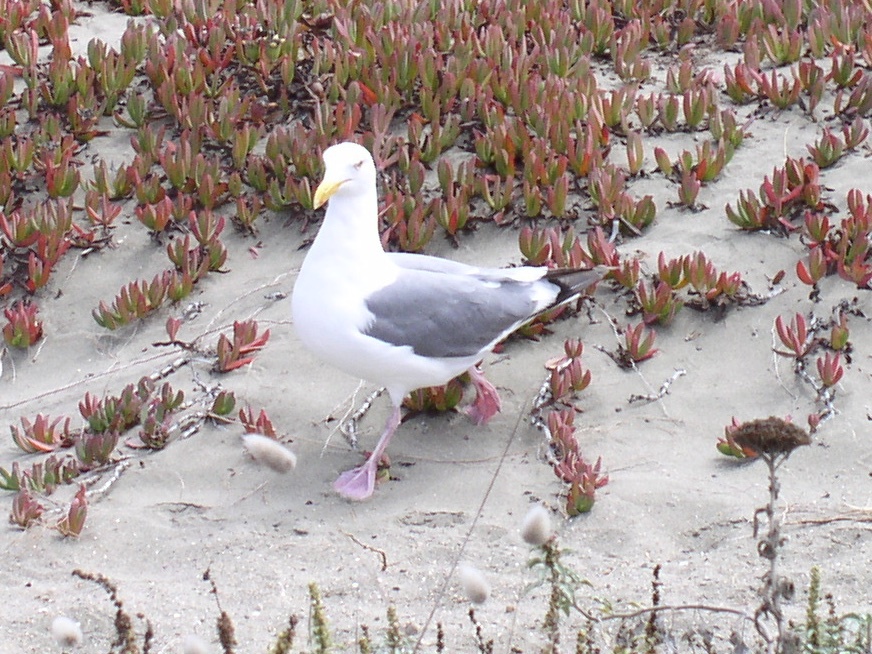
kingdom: Animalia
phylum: Chordata
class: Aves
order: Charadriiformes
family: Laridae
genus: Larus
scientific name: Larus occidentalis
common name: Western gull
